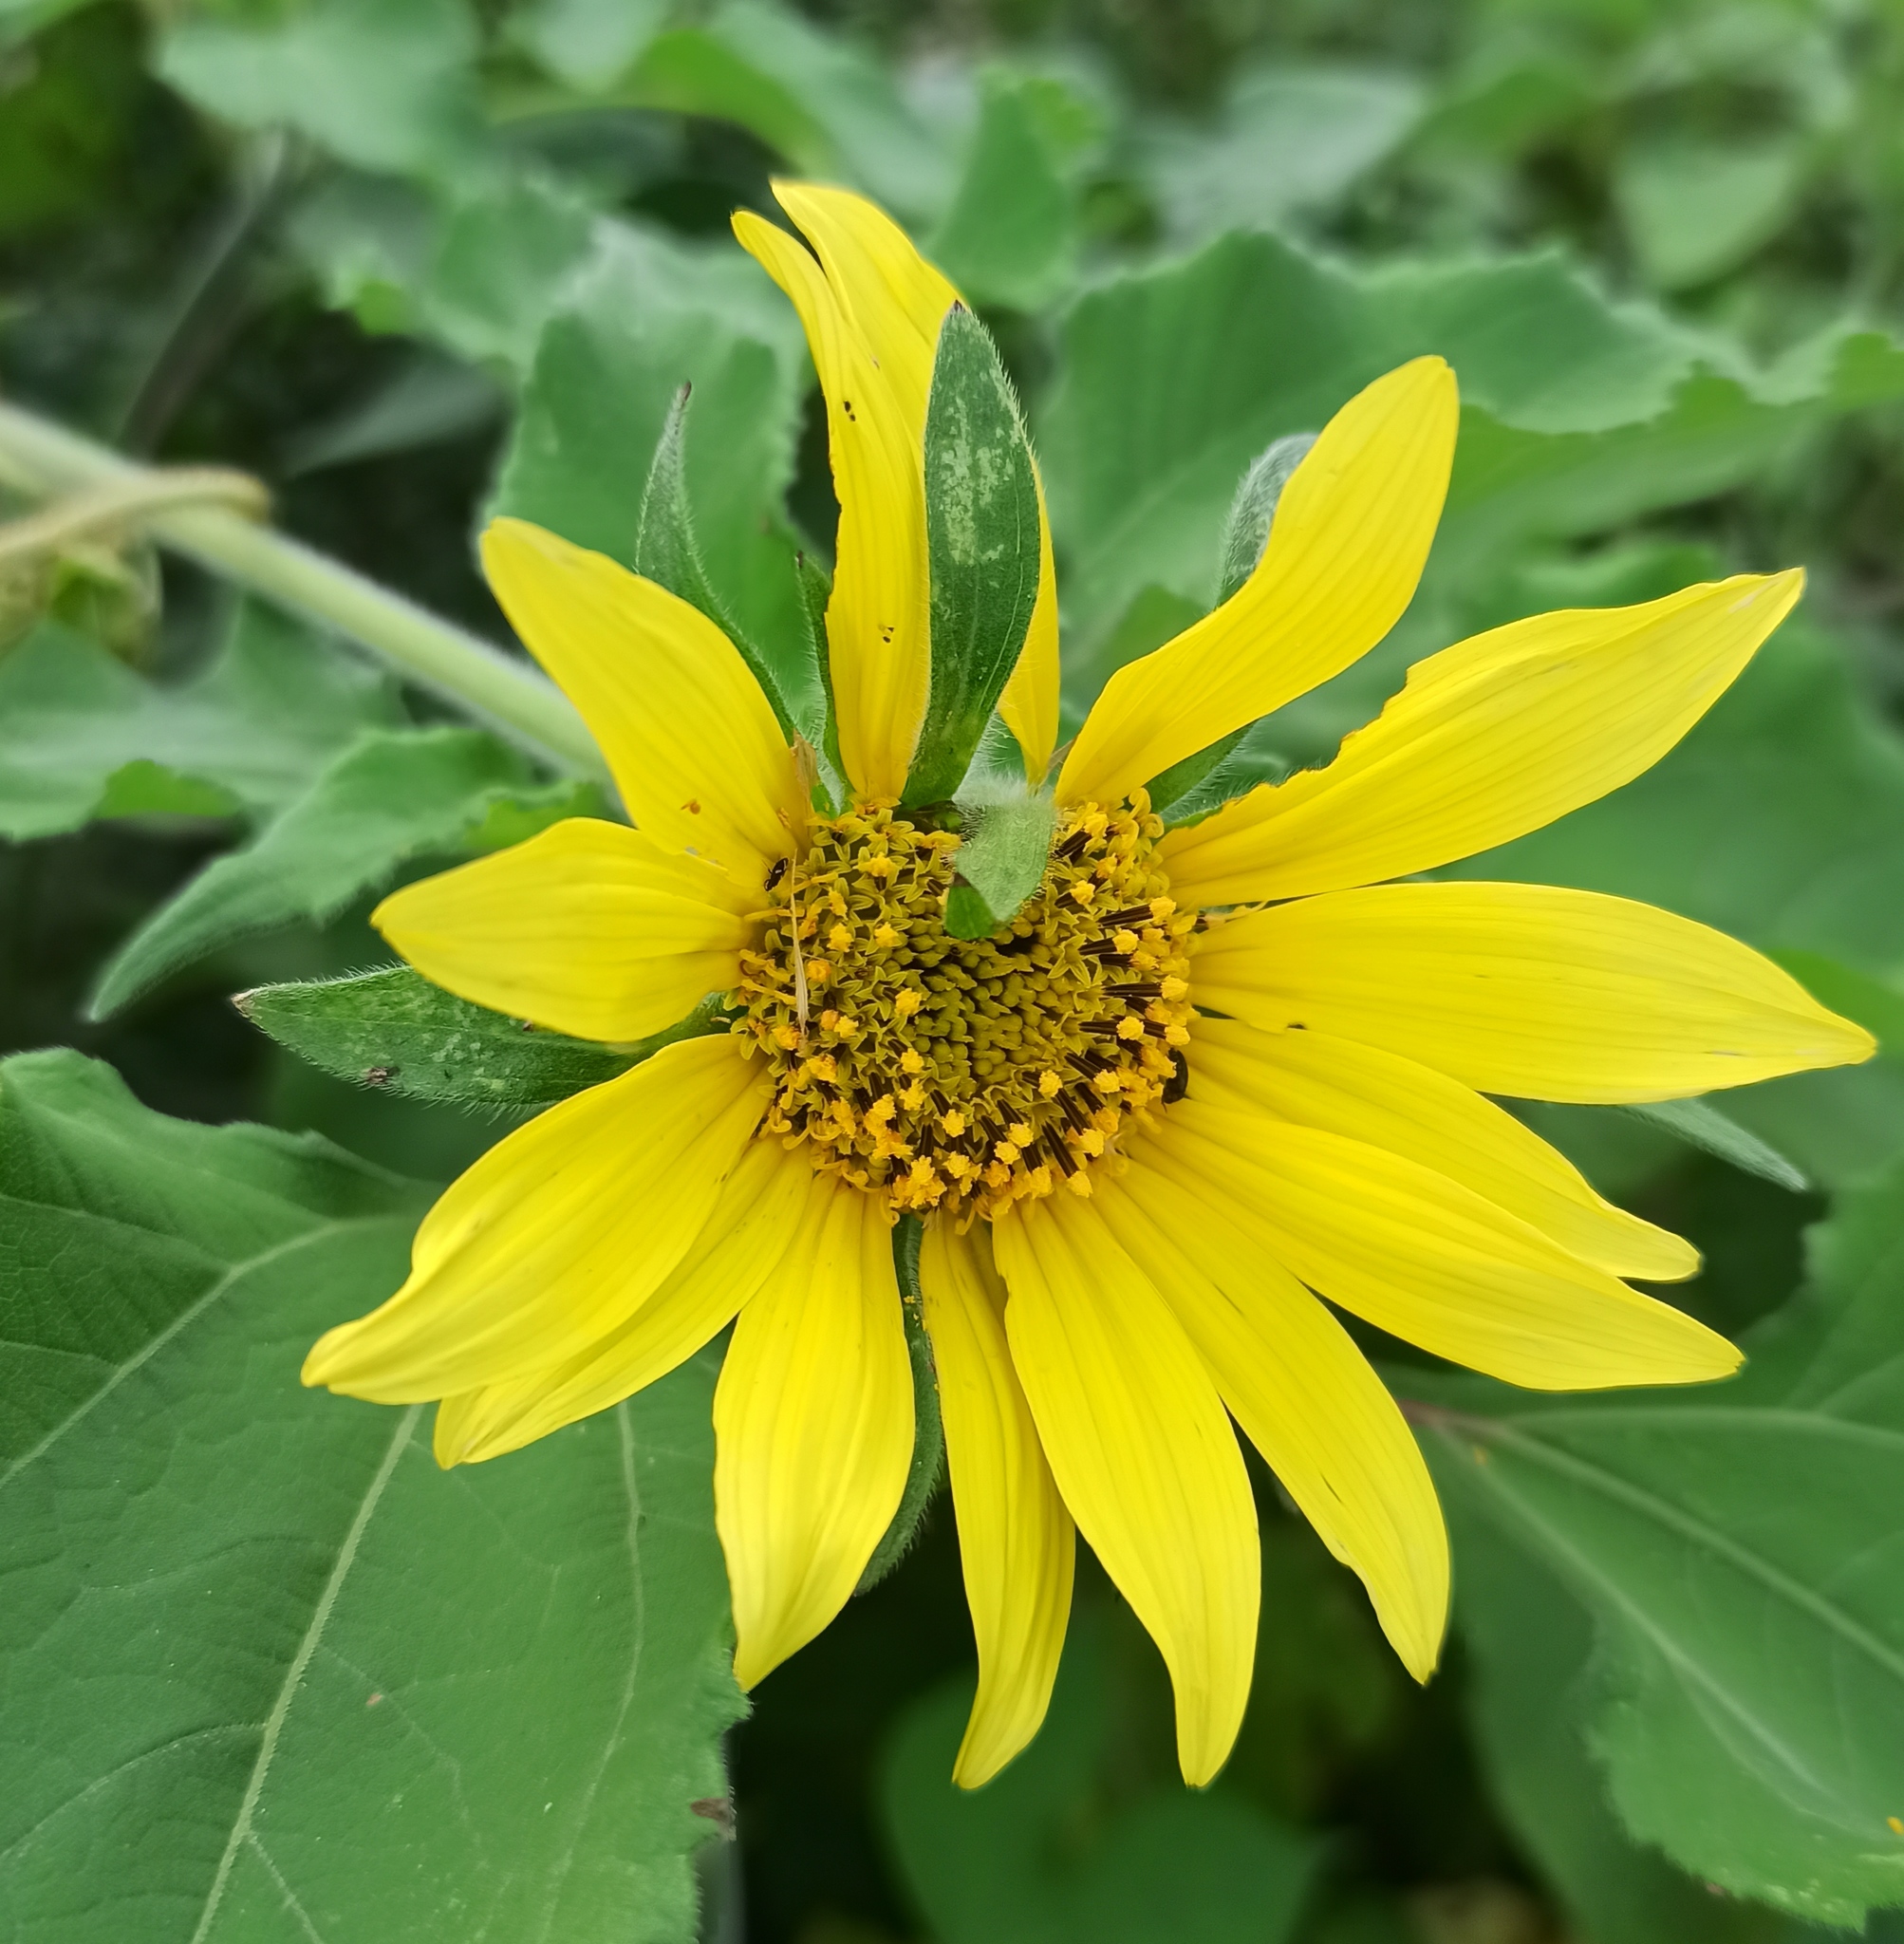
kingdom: Plantae
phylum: Tracheophyta
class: Magnoliopsida
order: Asterales
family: Asteraceae
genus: Tithonia
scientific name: Tithonia tubaeformis
